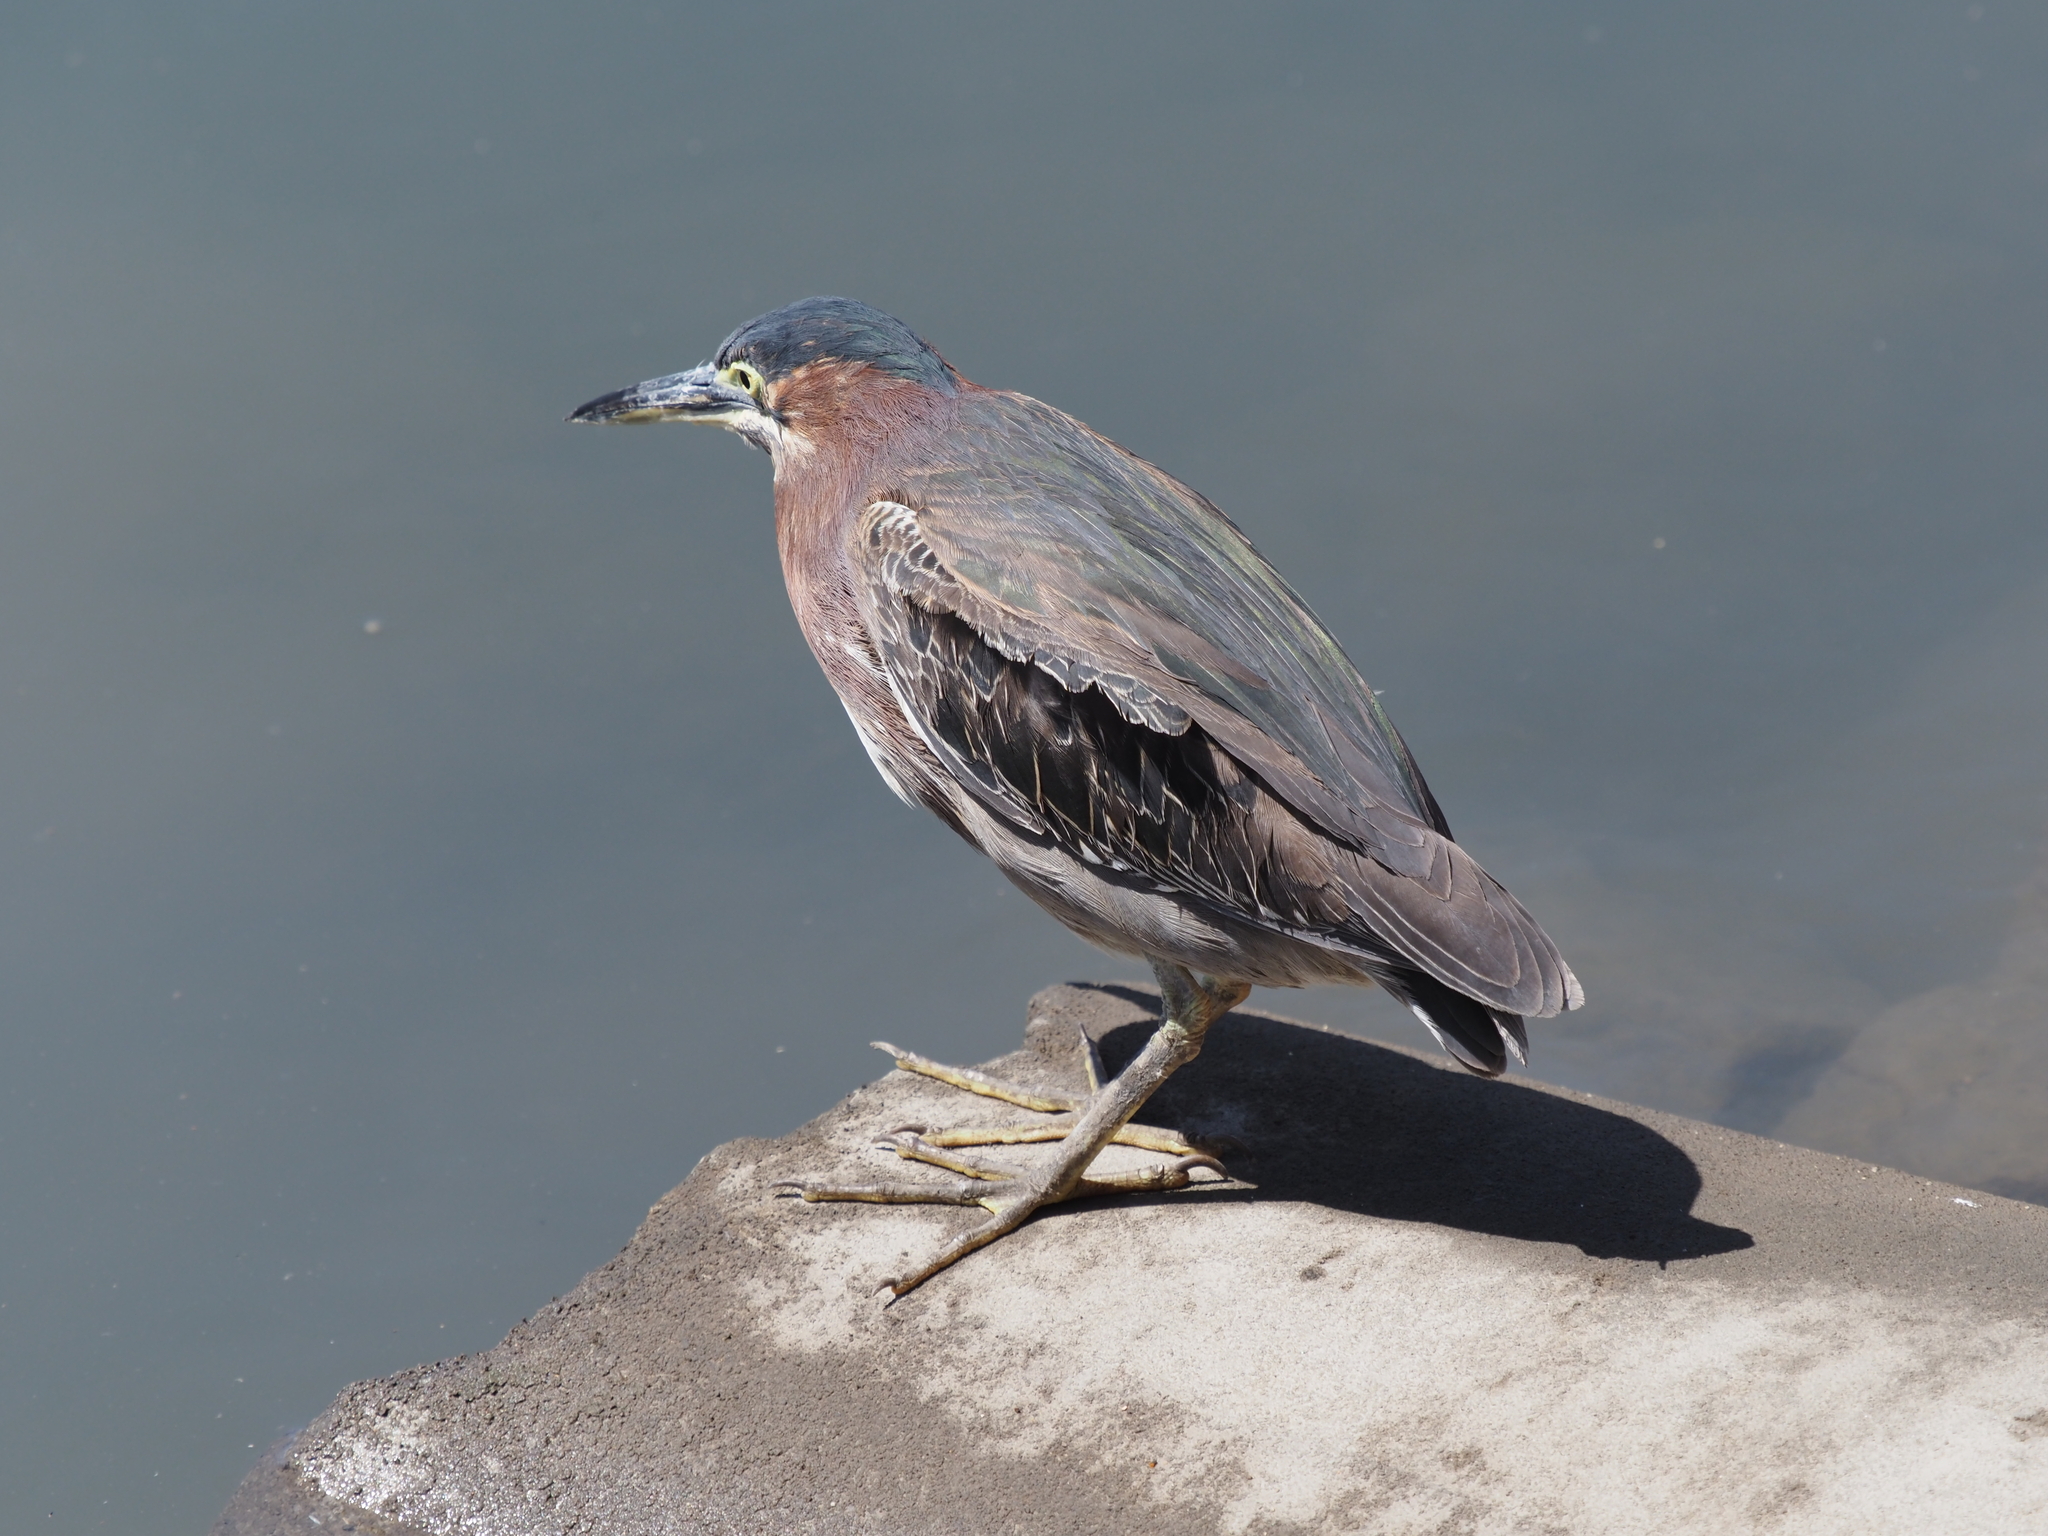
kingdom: Animalia
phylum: Chordata
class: Aves
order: Pelecaniformes
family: Ardeidae
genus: Butorides
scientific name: Butorides virescens
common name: Green heron
